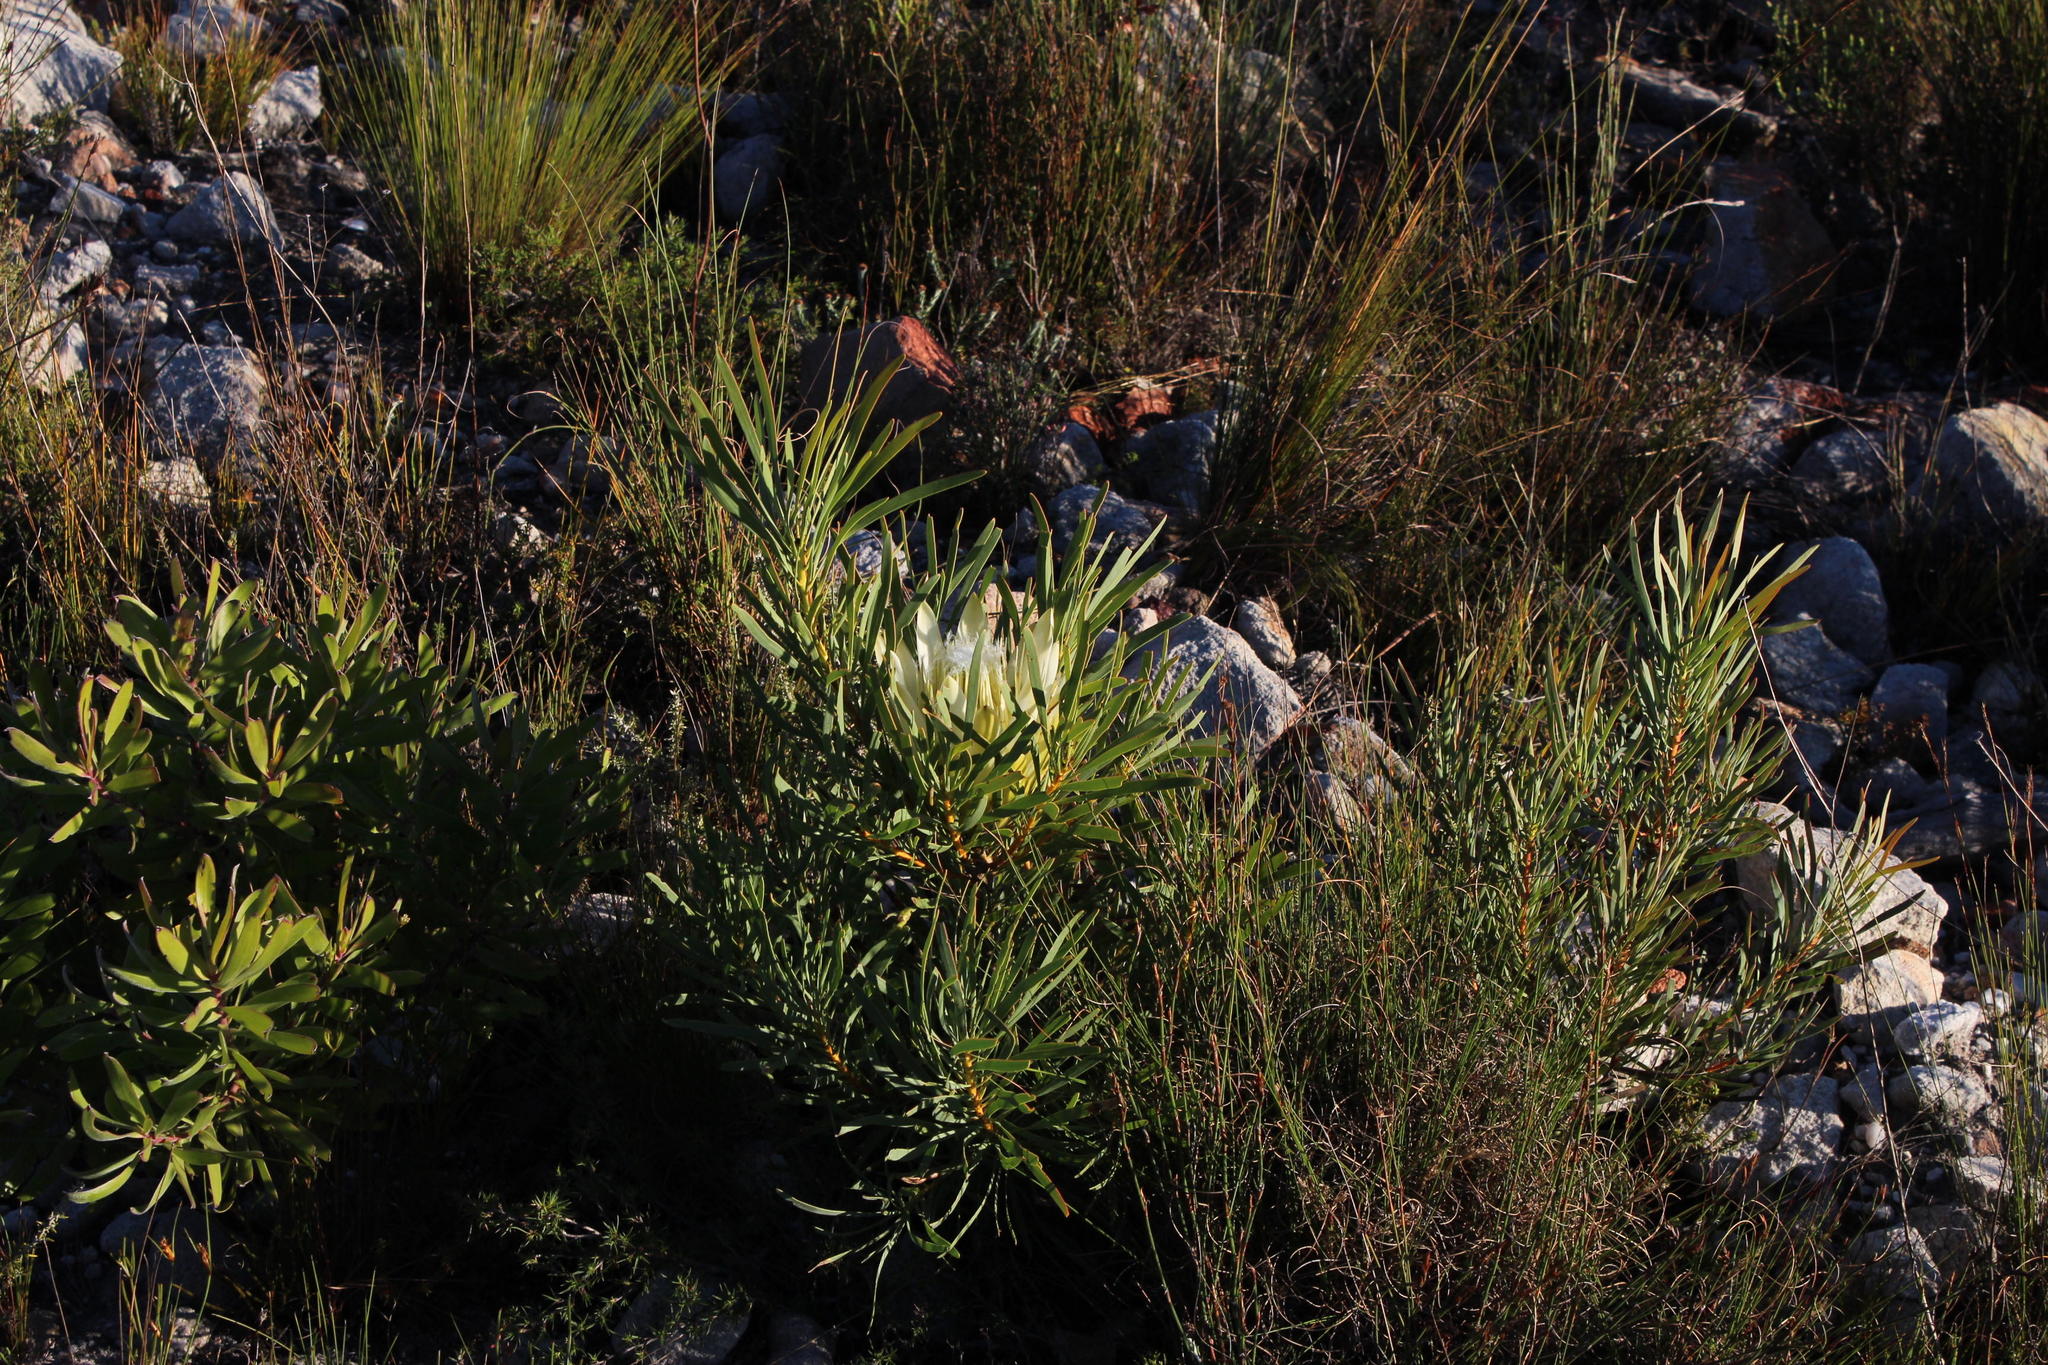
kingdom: Plantae
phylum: Tracheophyta
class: Magnoliopsida
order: Proteales
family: Proteaceae
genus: Protea
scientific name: Protea repens
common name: Sugarbush
